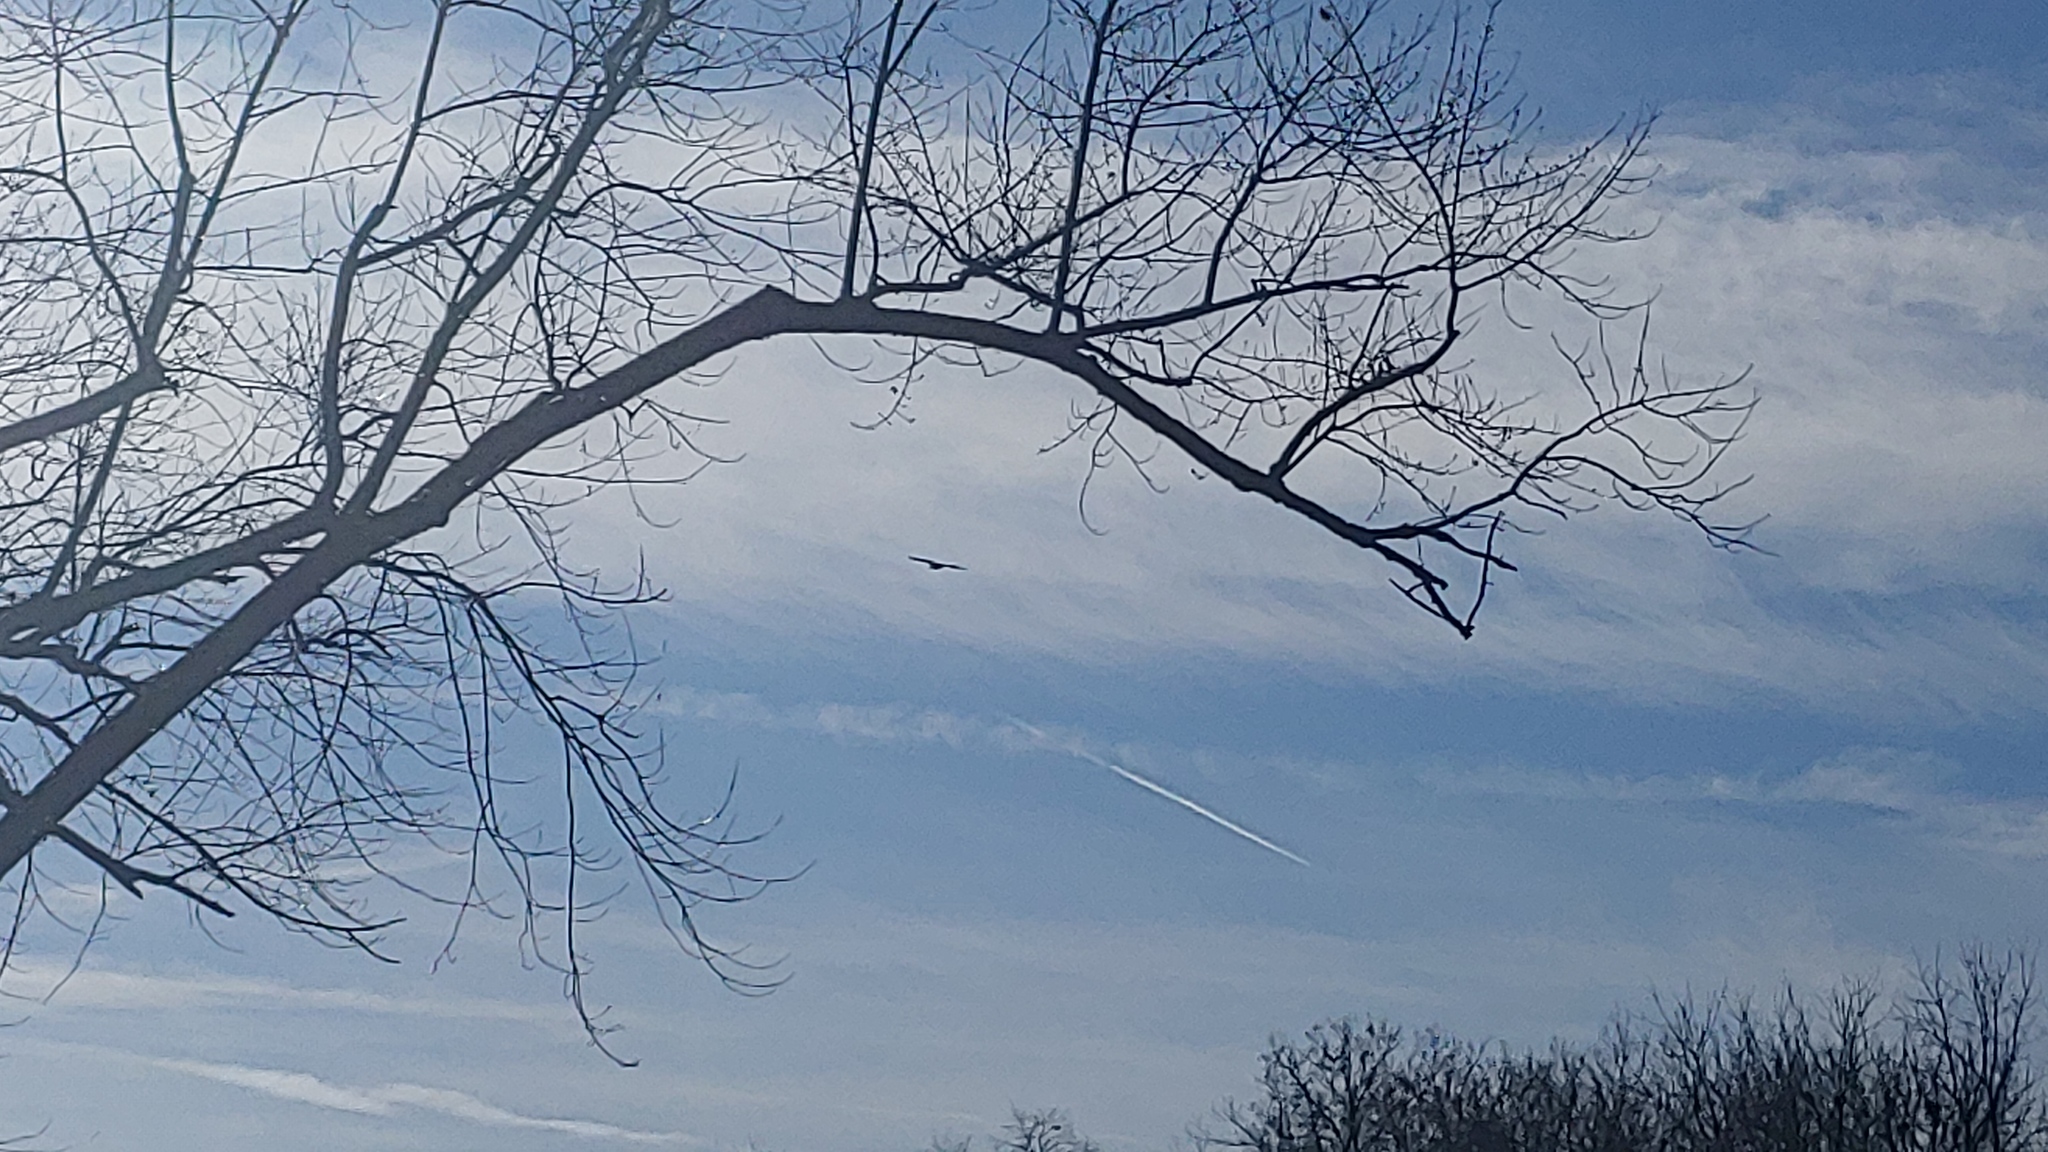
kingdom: Animalia
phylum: Chordata
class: Aves
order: Accipitriformes
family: Accipitridae
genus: Haliaeetus
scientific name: Haliaeetus leucocephalus
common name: Bald eagle
